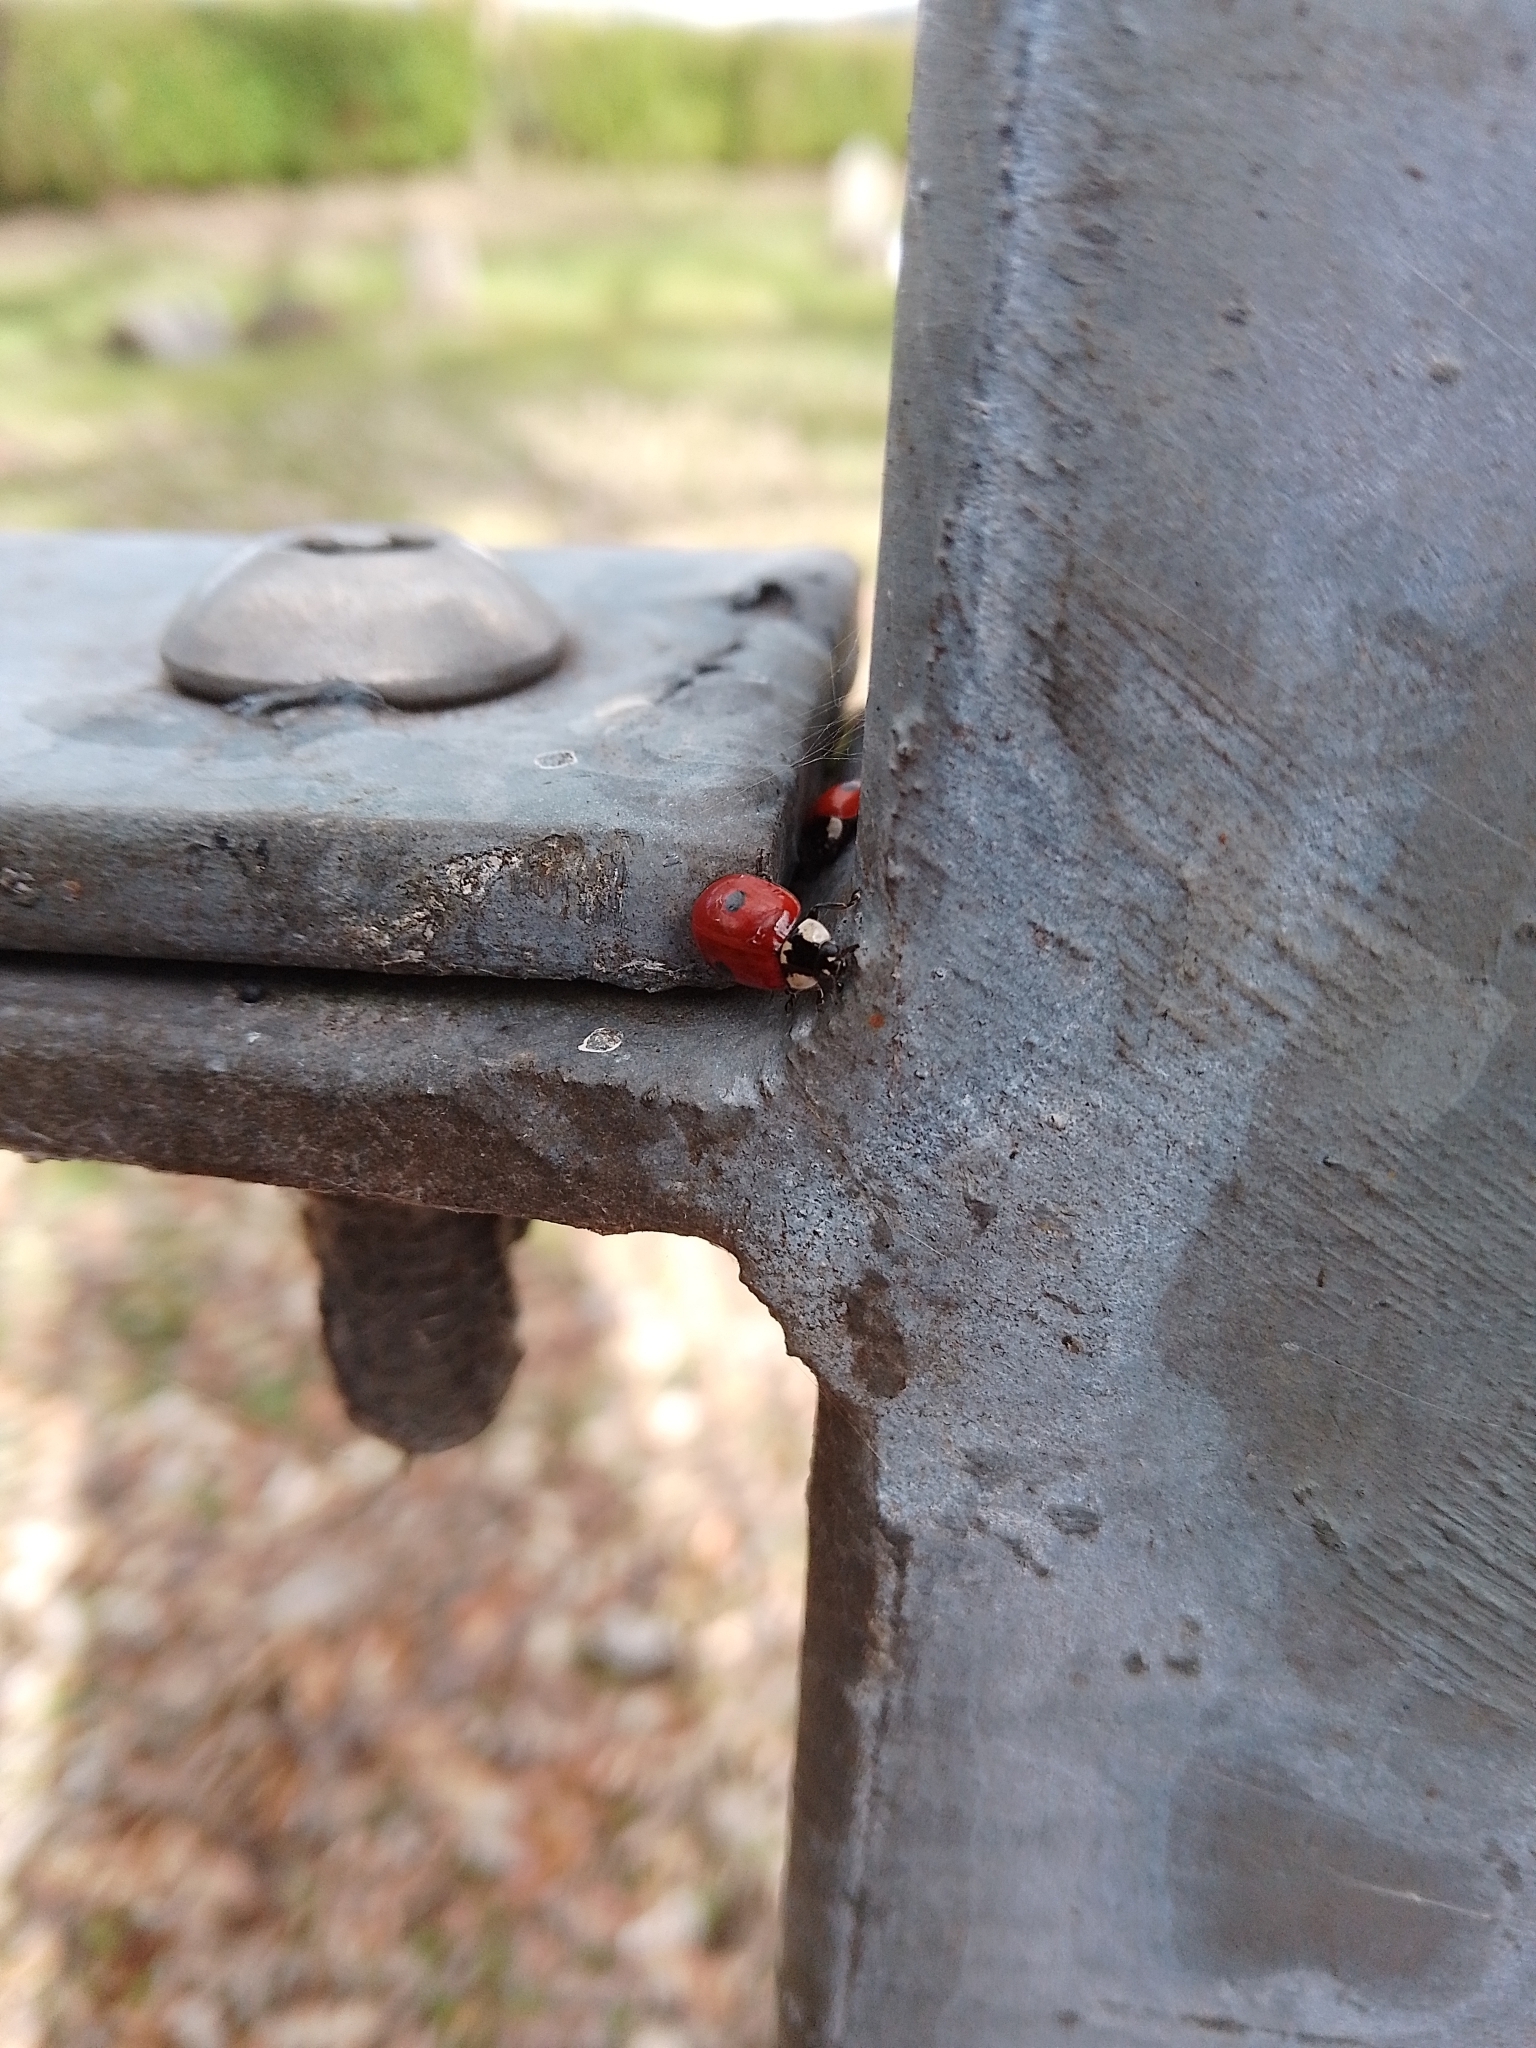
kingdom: Animalia
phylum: Arthropoda
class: Insecta
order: Coleoptera
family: Coccinellidae
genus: Adalia
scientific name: Adalia bipunctata
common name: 2-spot ladybird
